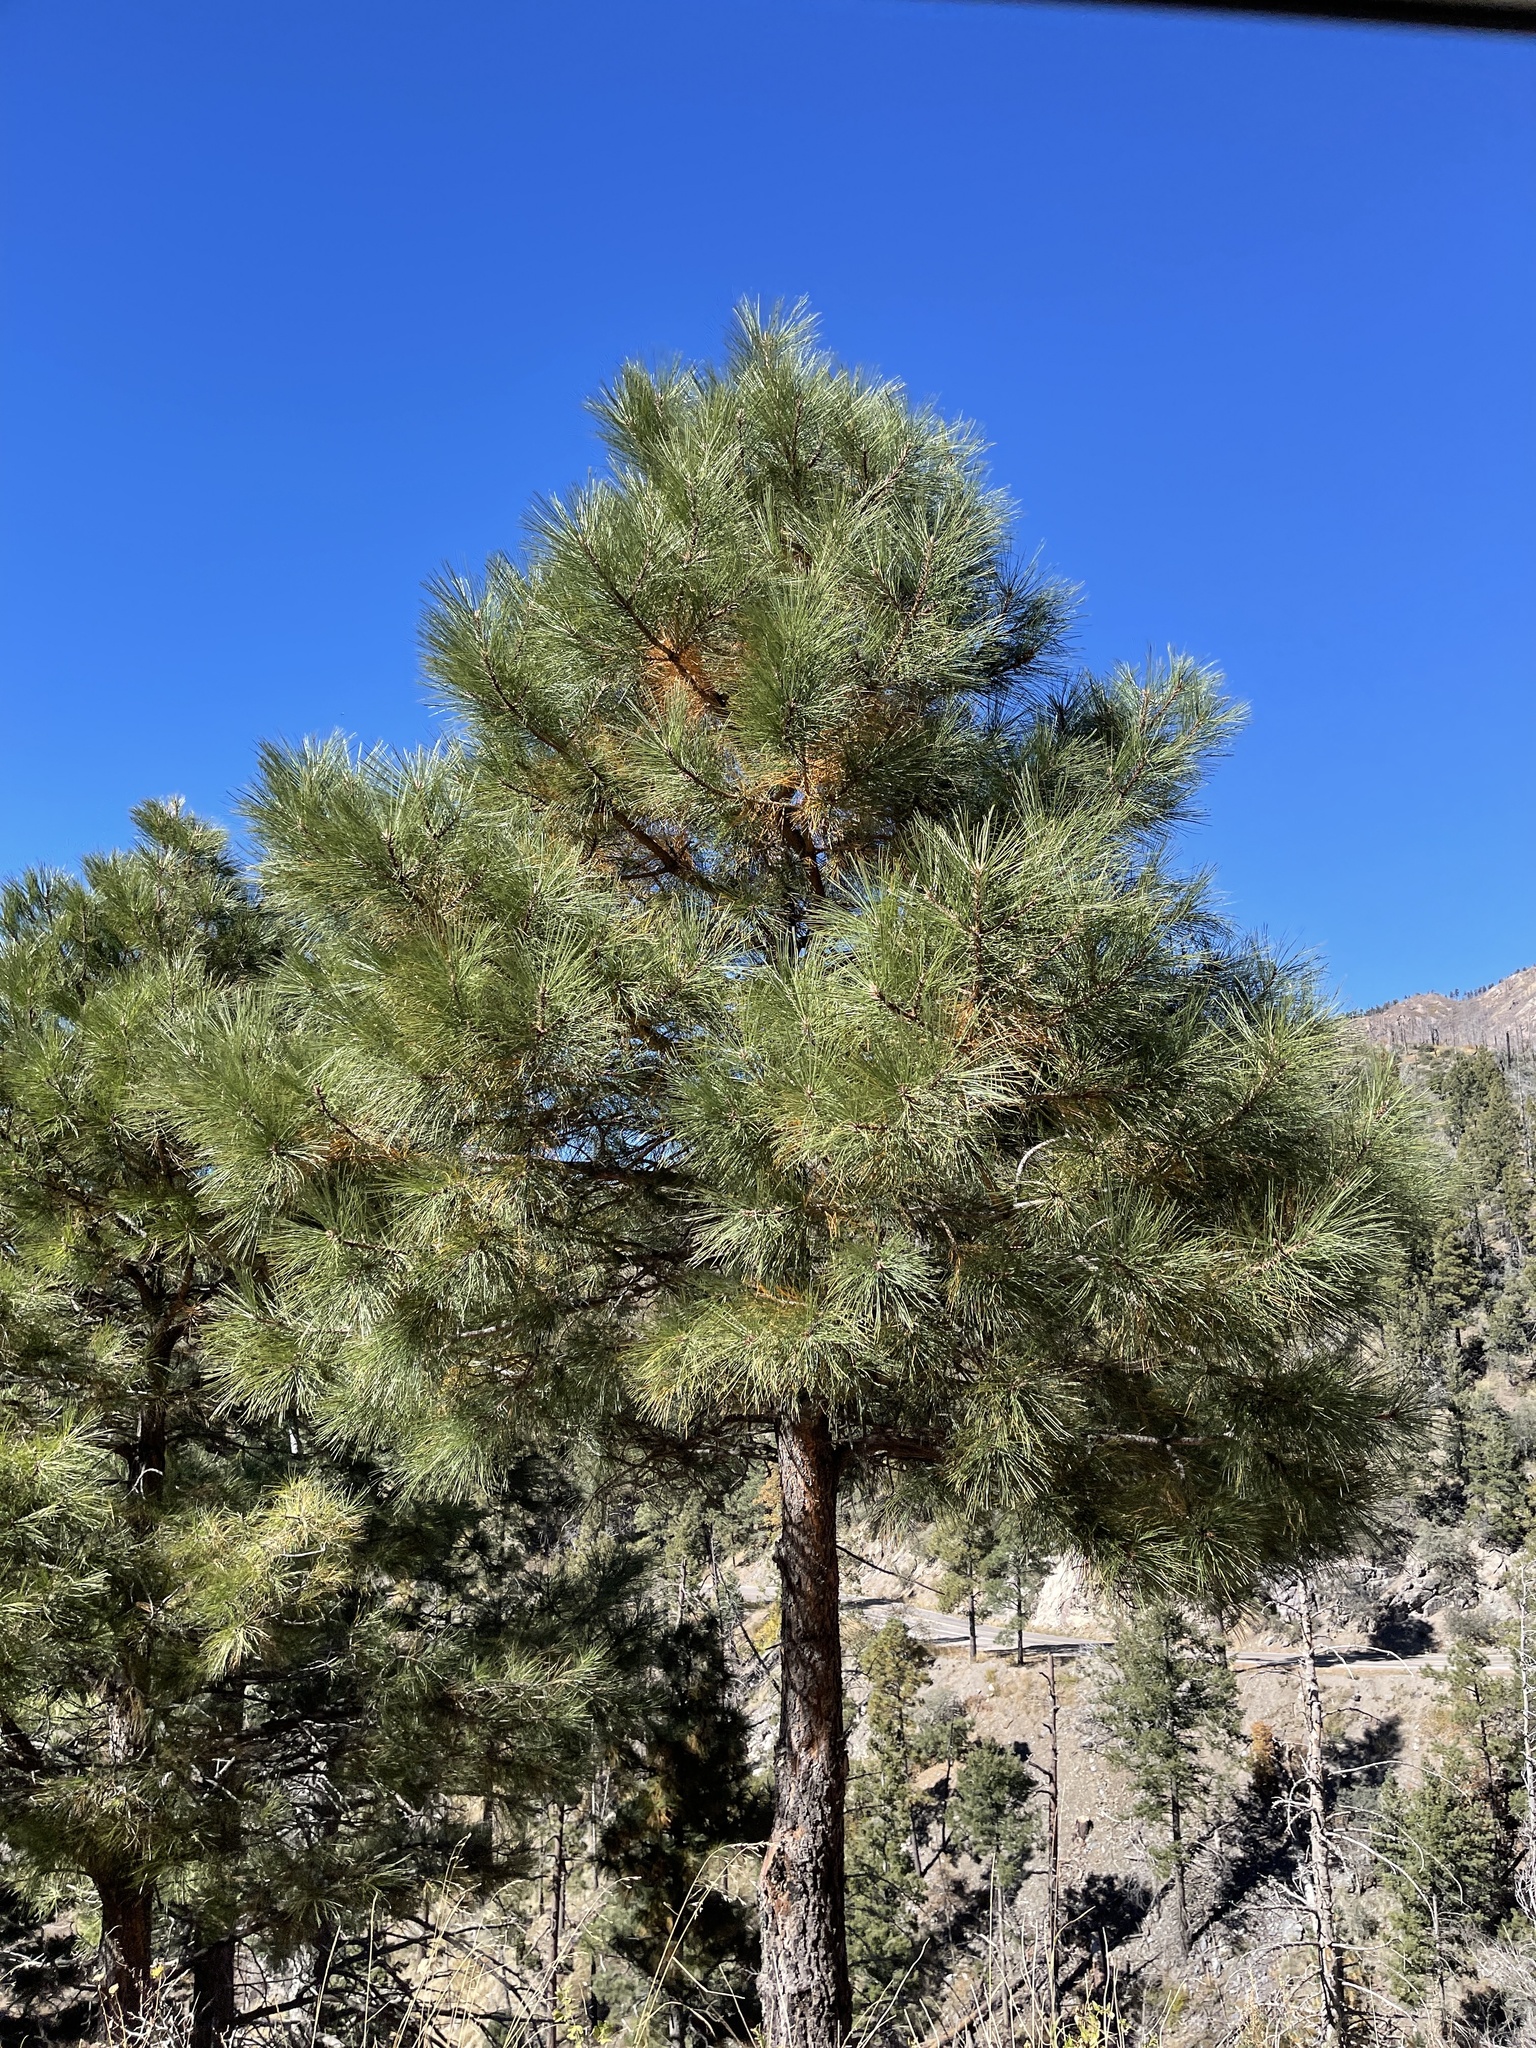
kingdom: Plantae
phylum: Tracheophyta
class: Pinopsida
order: Pinales
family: Pinaceae
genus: Pinus
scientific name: Pinus ponderosa
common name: Western yellow-pine
